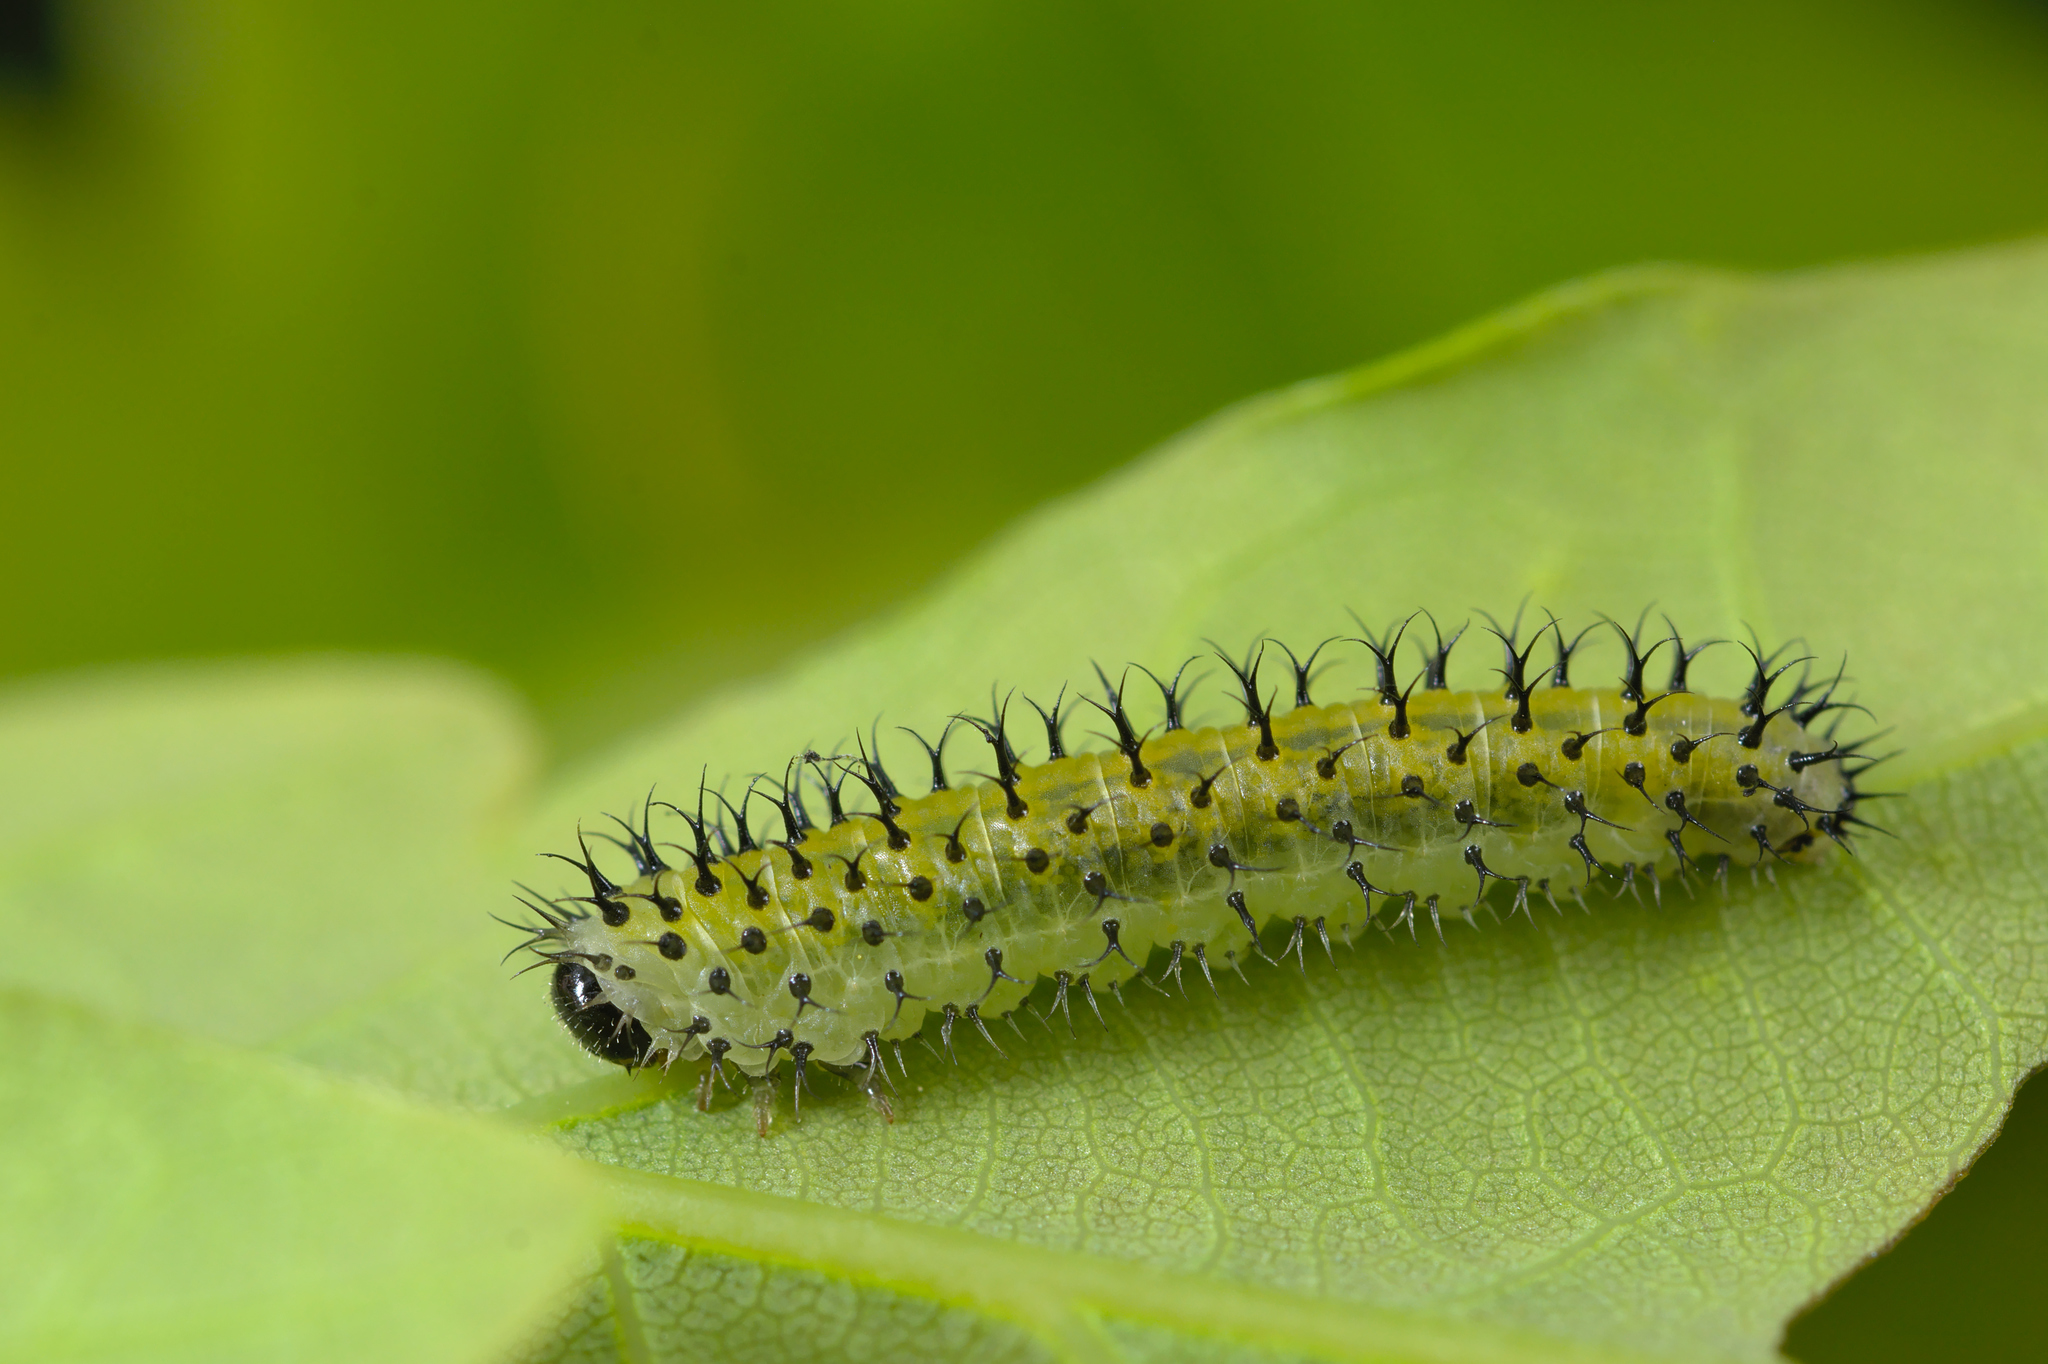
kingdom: Animalia
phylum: Arthropoda
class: Insecta
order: Hymenoptera
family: Tenthredinidae
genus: Periclista
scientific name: Periclista lineolata
